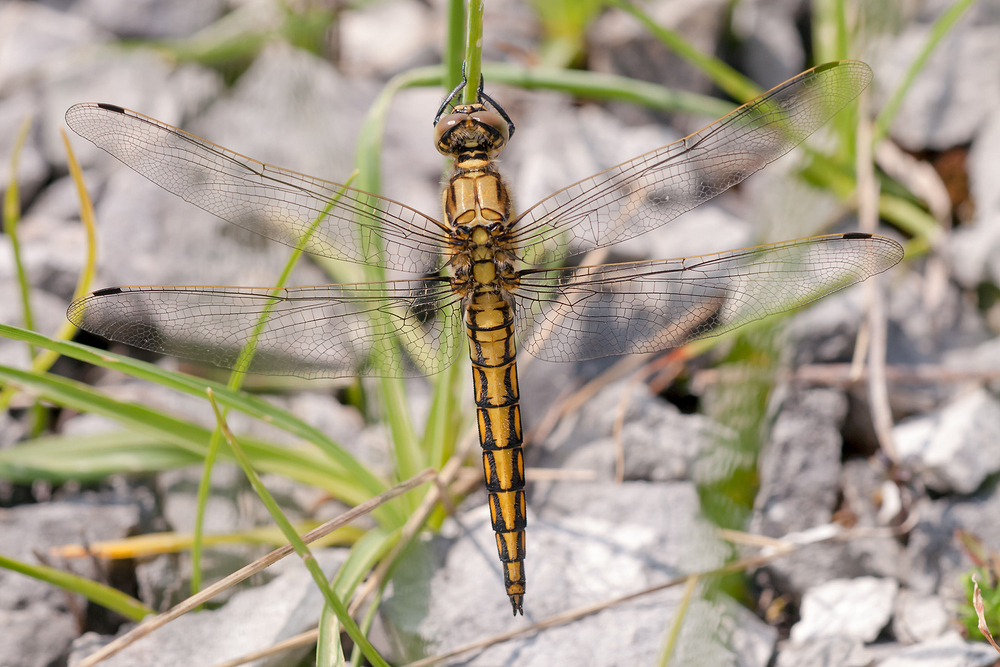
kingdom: Animalia
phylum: Arthropoda
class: Insecta
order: Odonata
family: Libellulidae
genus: Orthetrum
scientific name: Orthetrum cancellatum
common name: Black-tailed skimmer
